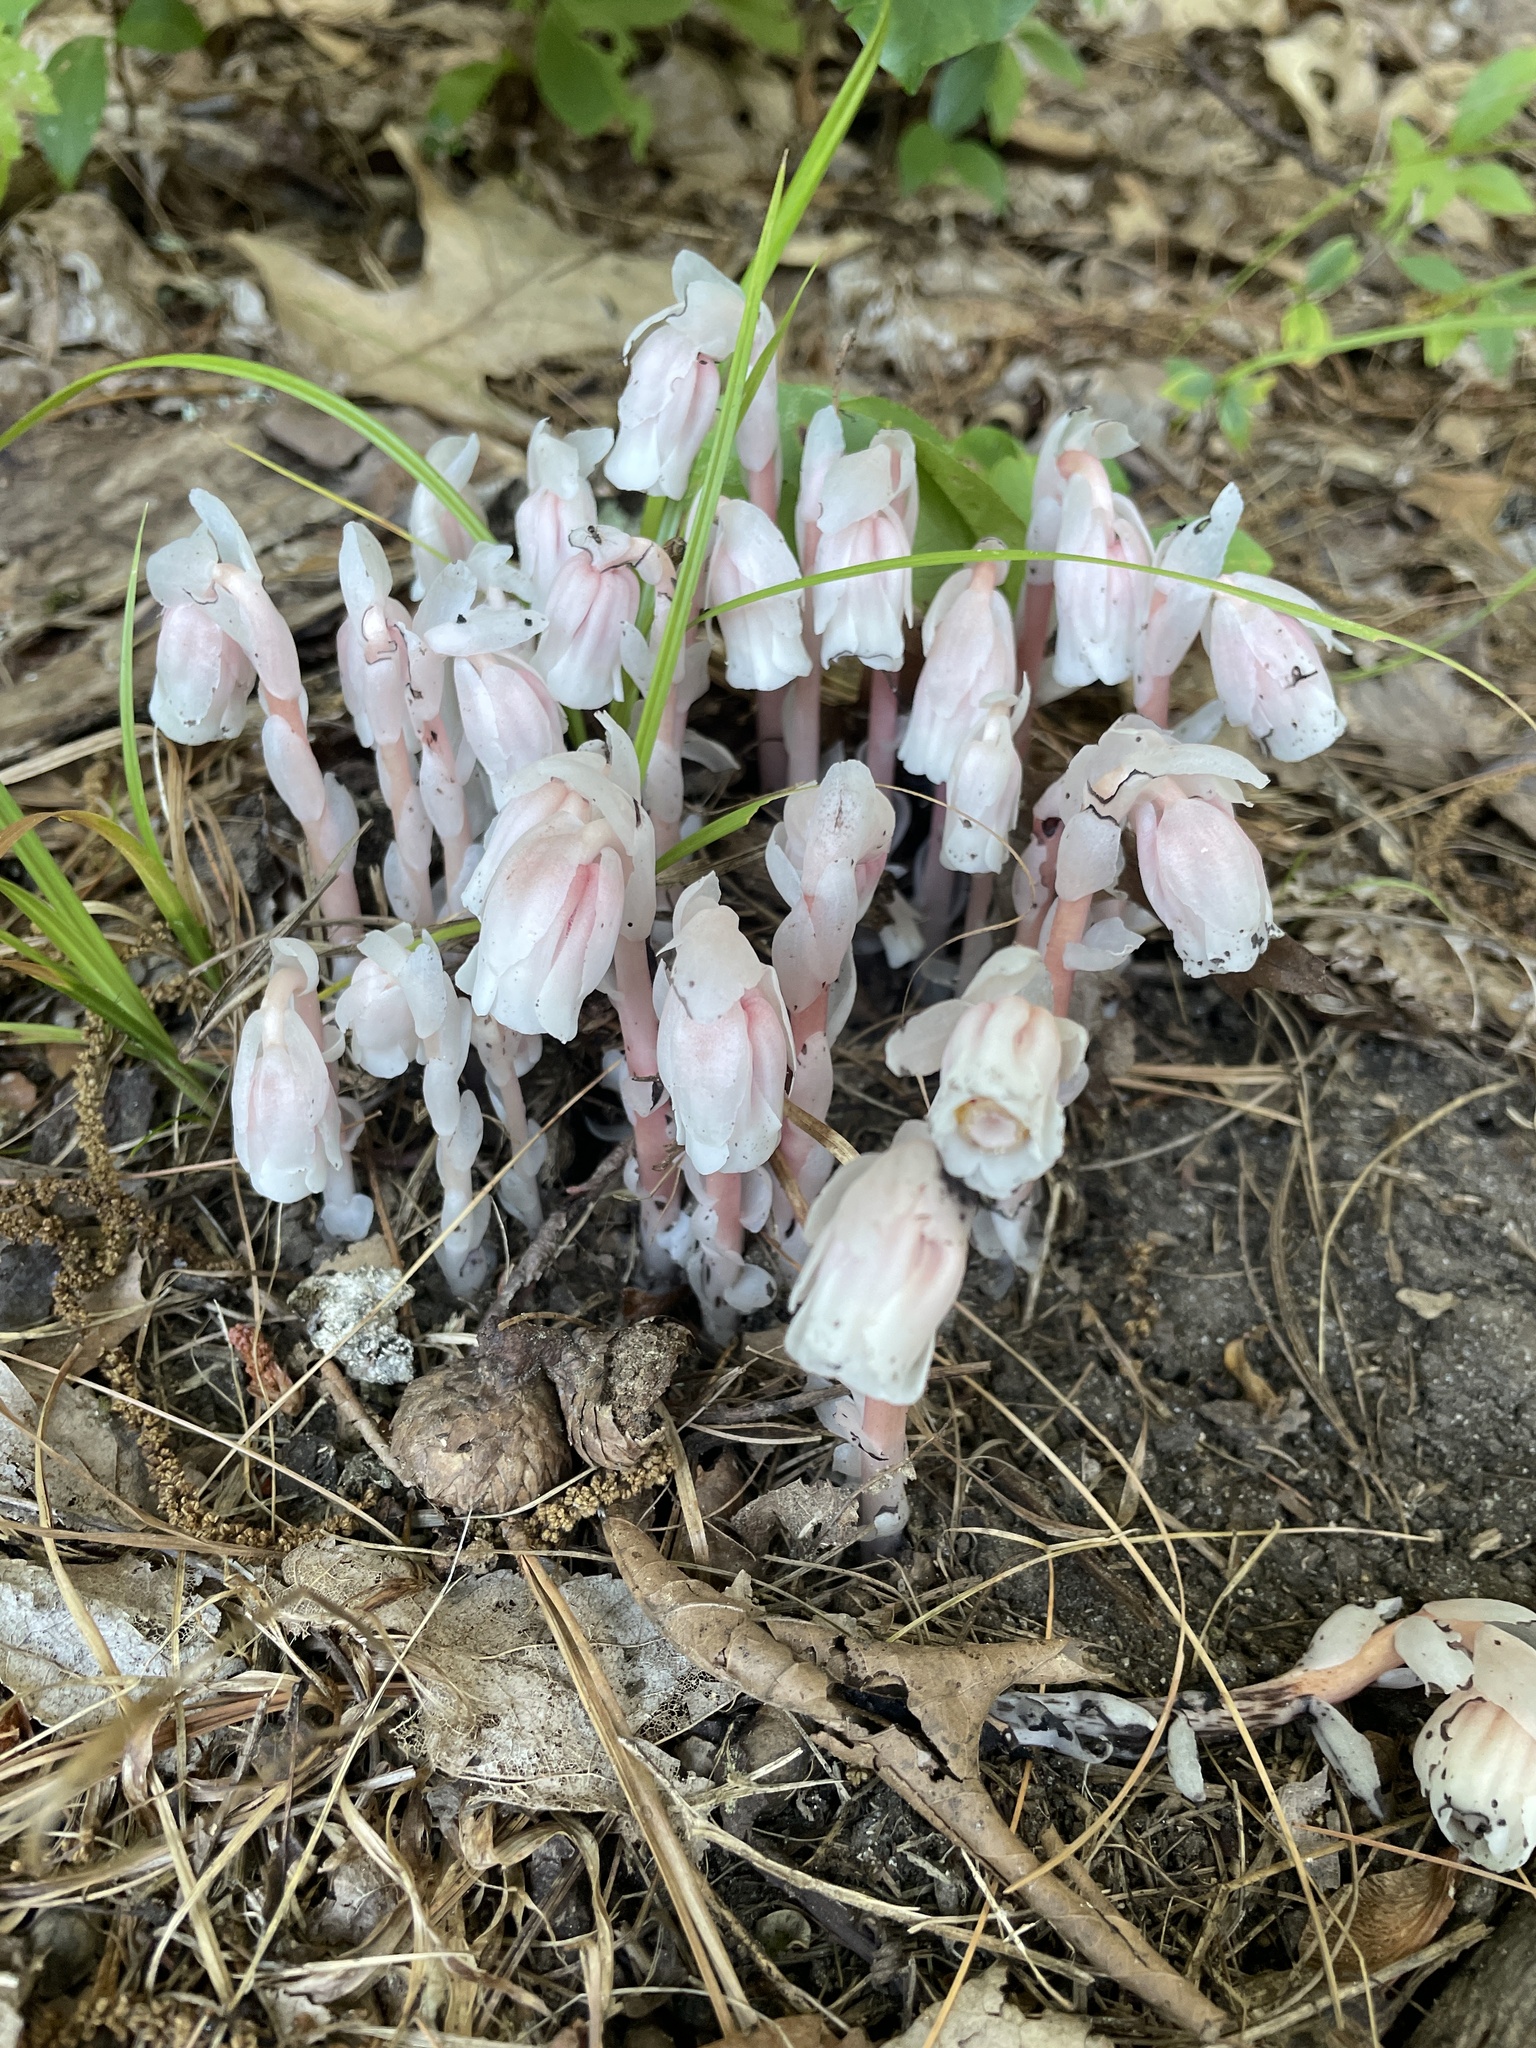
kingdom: Plantae
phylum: Tracheophyta
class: Magnoliopsida
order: Ericales
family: Ericaceae
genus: Monotropa
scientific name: Monotropa uniflora
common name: Convulsion root
